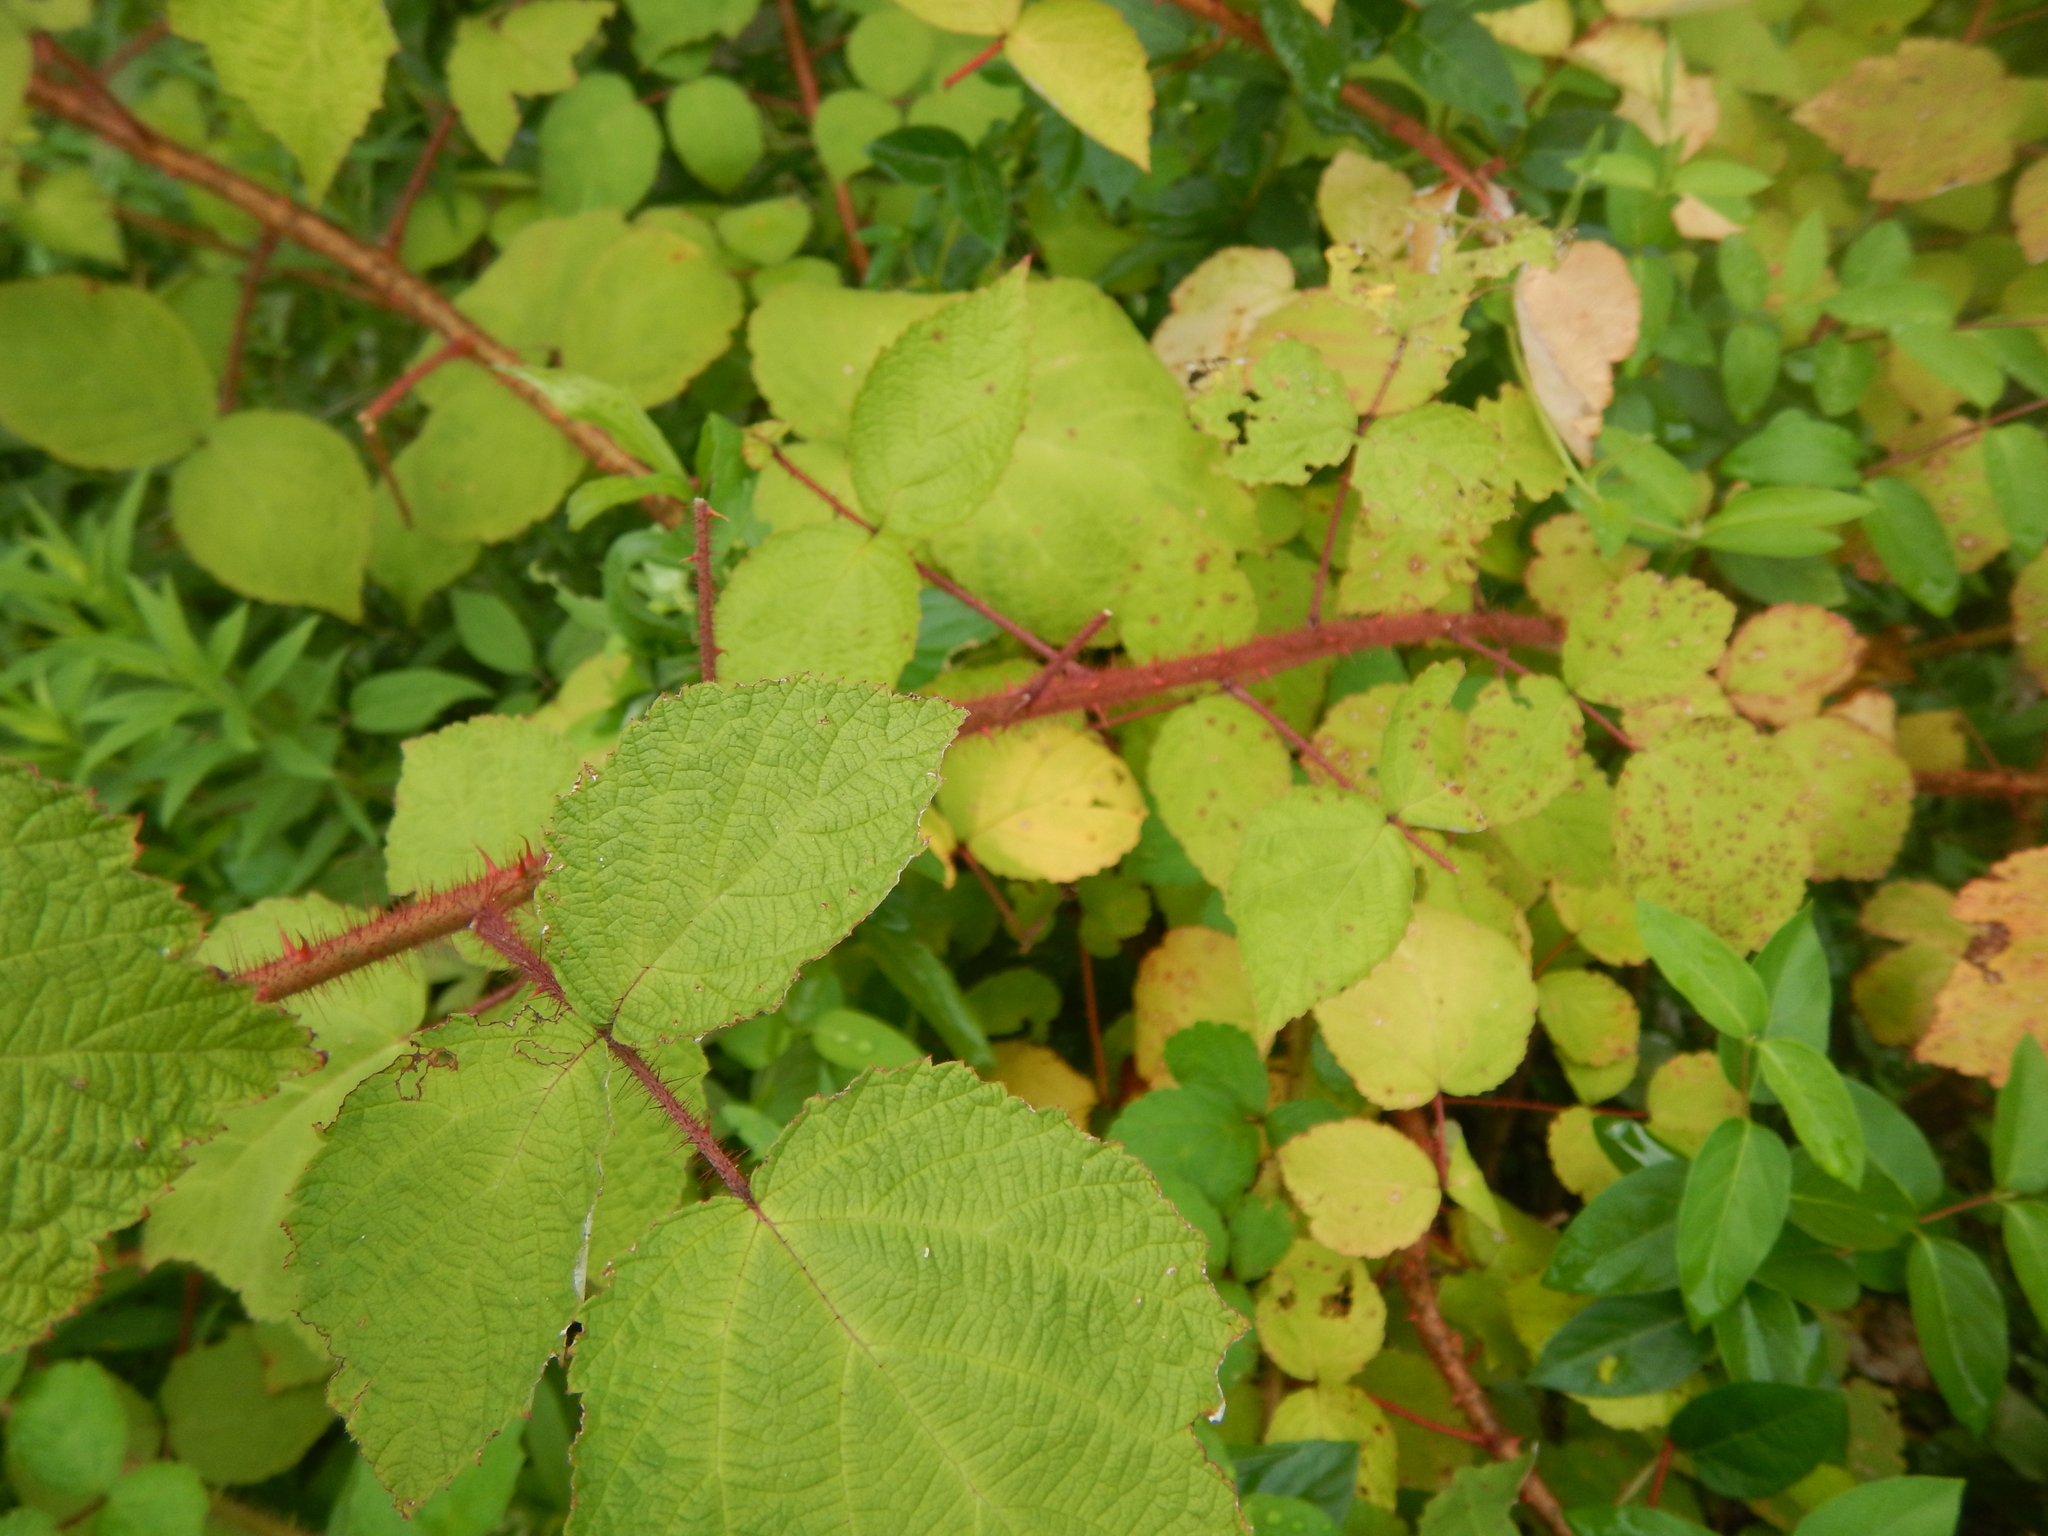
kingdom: Plantae
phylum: Tracheophyta
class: Magnoliopsida
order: Rosales
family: Rosaceae
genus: Rubus
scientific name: Rubus phoenicolasius
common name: Japanese wineberry
